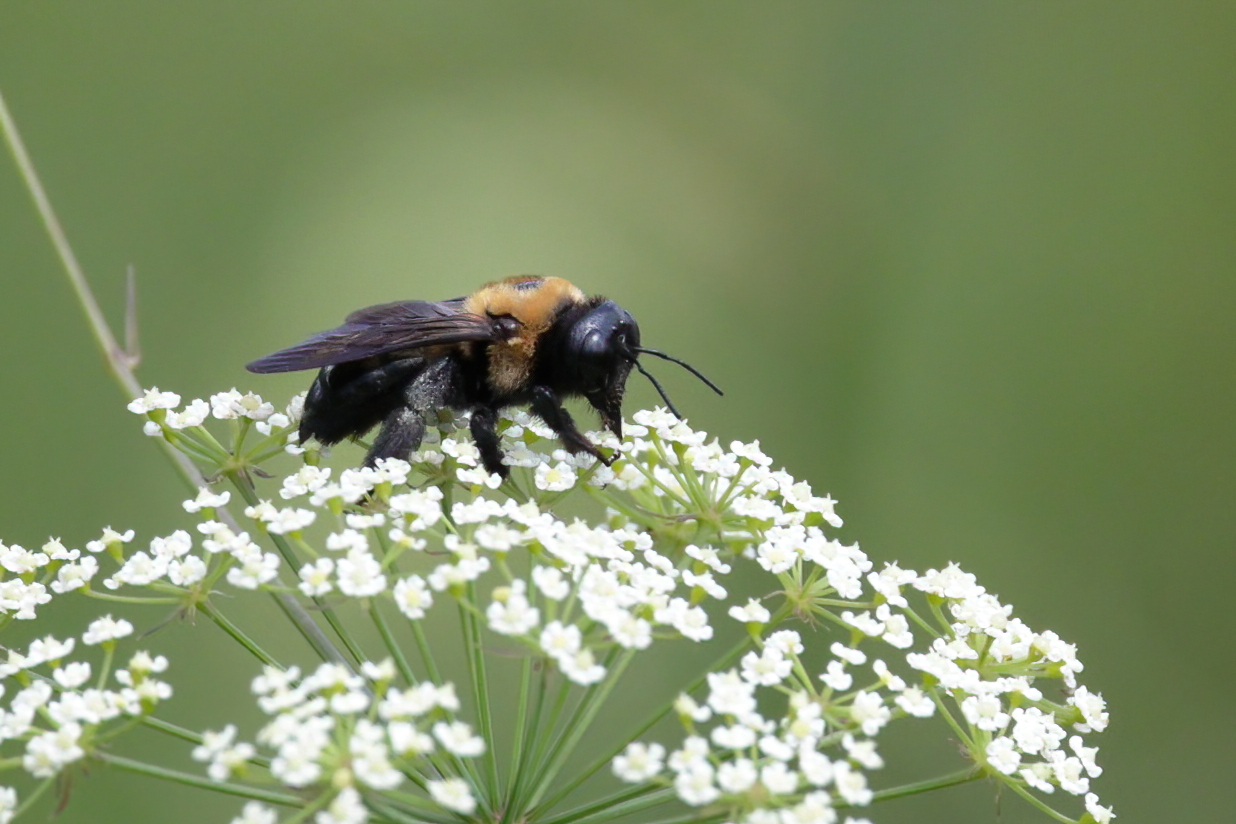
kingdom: Animalia
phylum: Arthropoda
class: Insecta
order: Hymenoptera
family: Apidae
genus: Xylocopa
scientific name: Xylocopa virginica
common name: Carpenter bee
